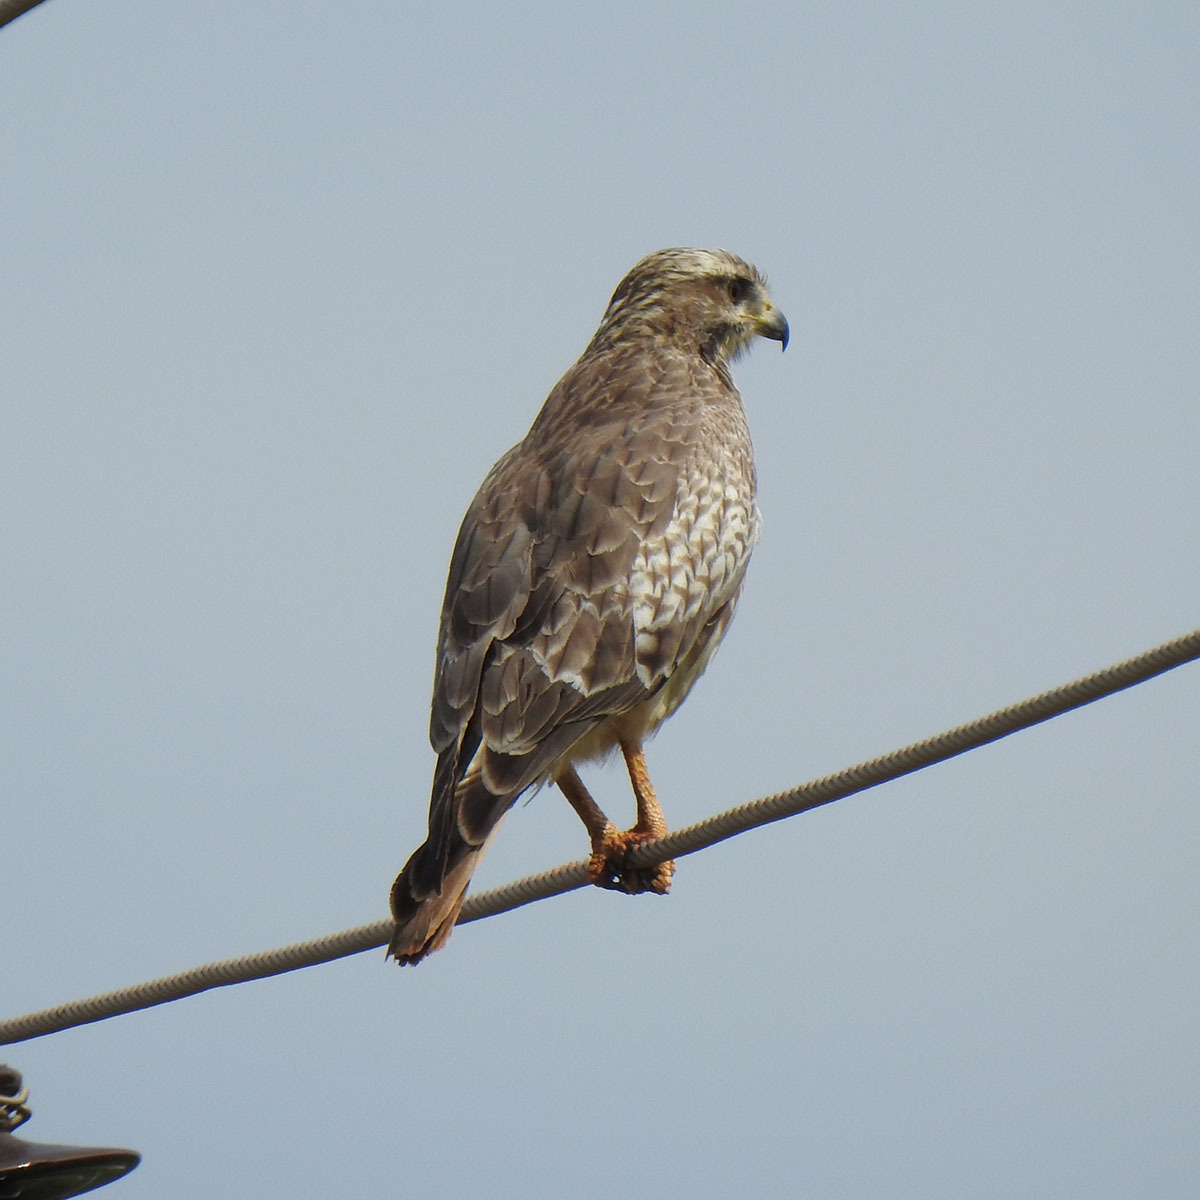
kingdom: Animalia
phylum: Chordata
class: Aves
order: Accipitriformes
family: Accipitridae
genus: Butastur
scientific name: Butastur teesa
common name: White-eyed buzzard
